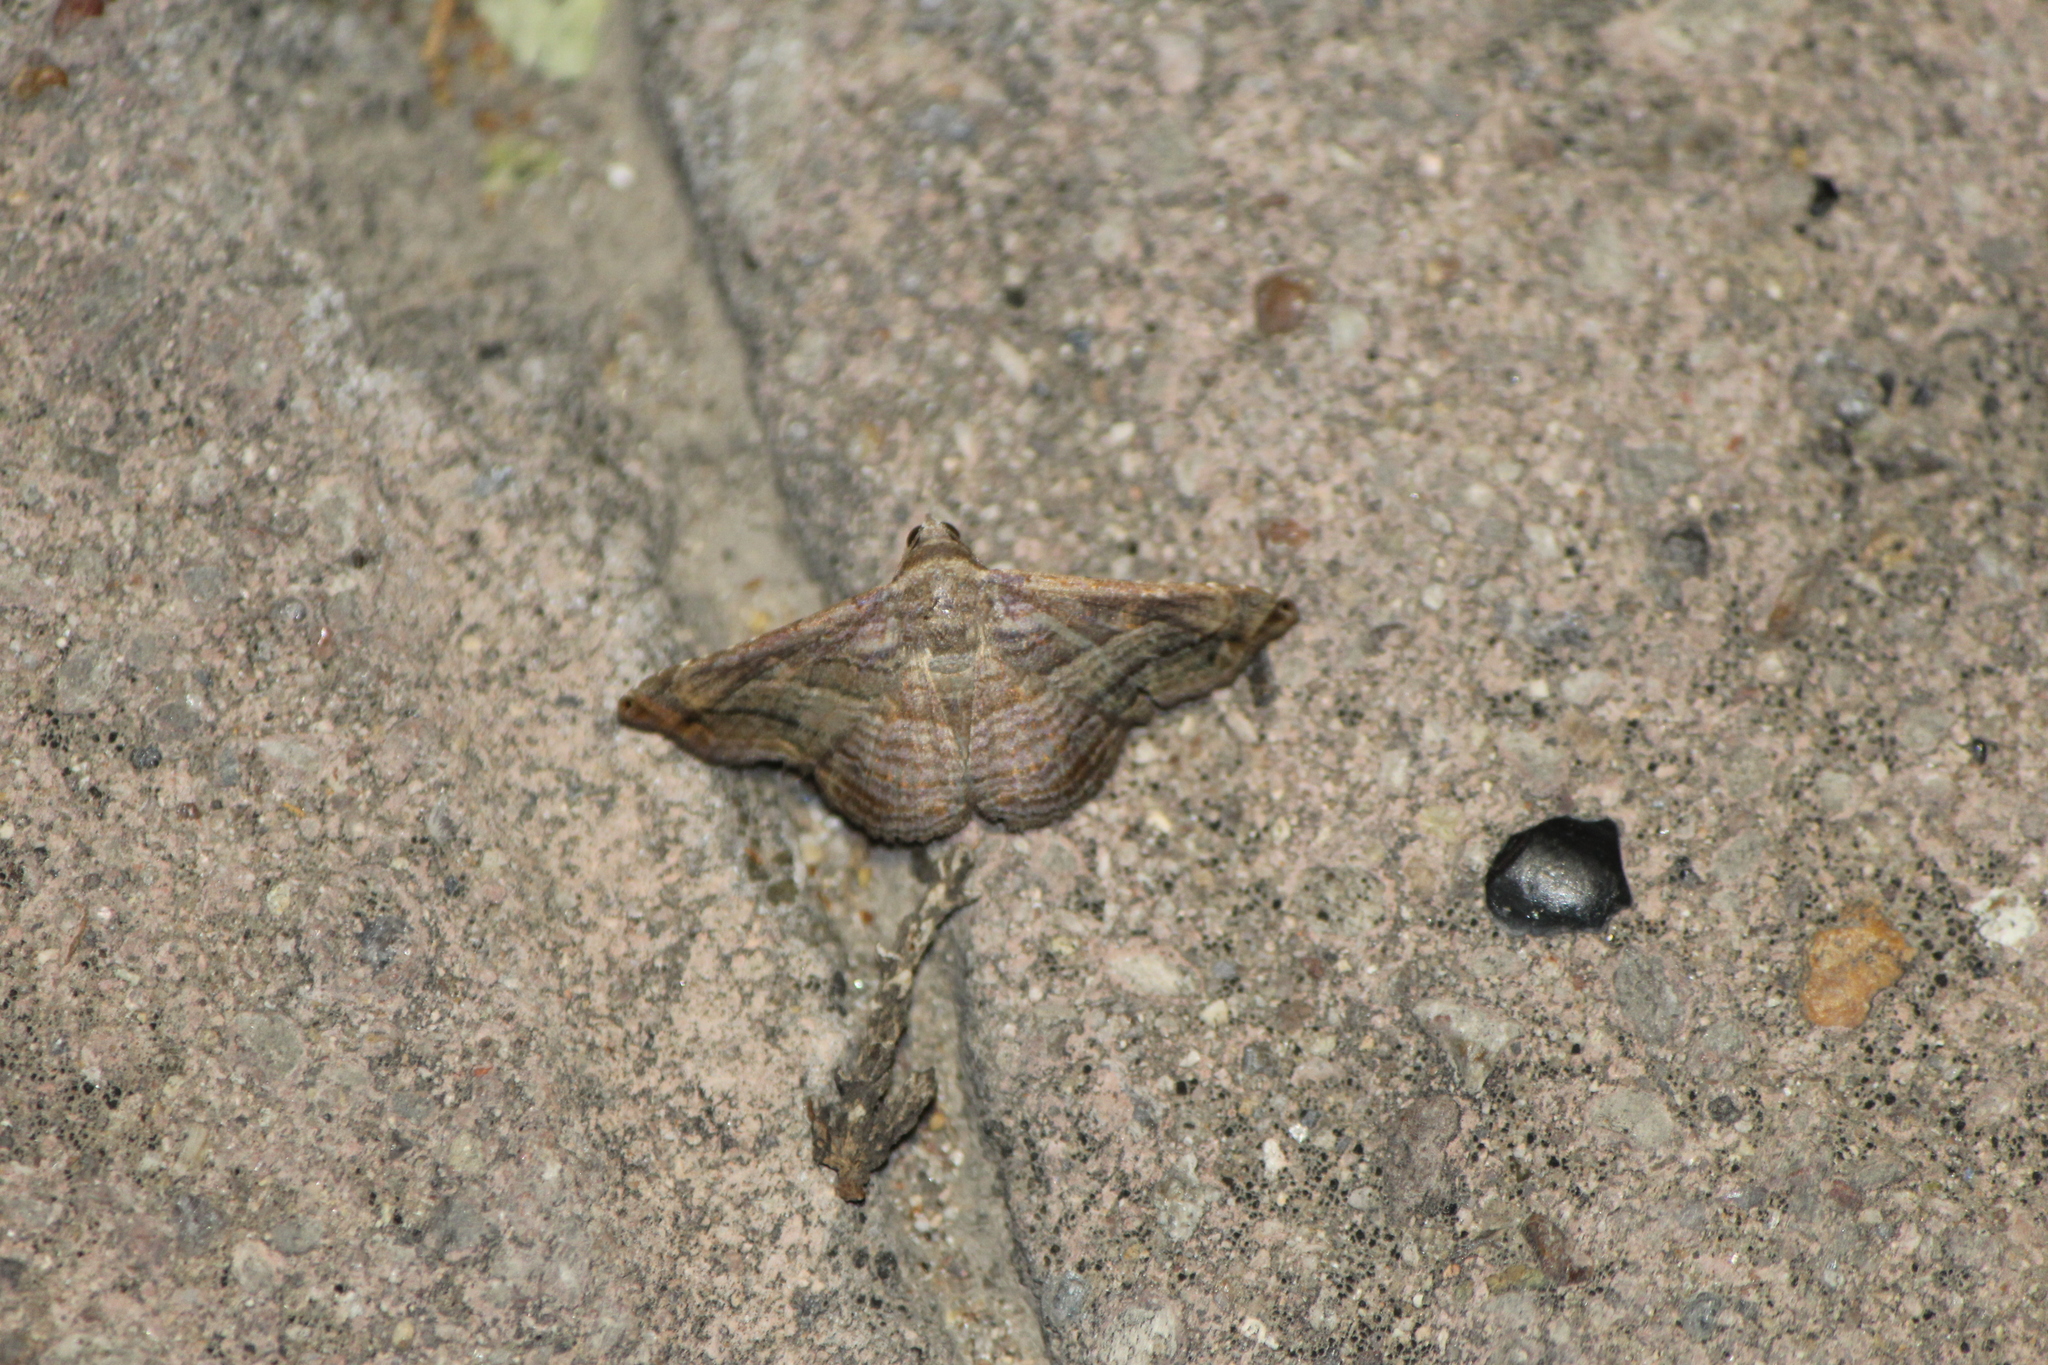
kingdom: Animalia
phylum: Arthropoda
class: Insecta
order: Lepidoptera
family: Erebidae
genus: Tyrissa
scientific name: Tyrissa multilinea
